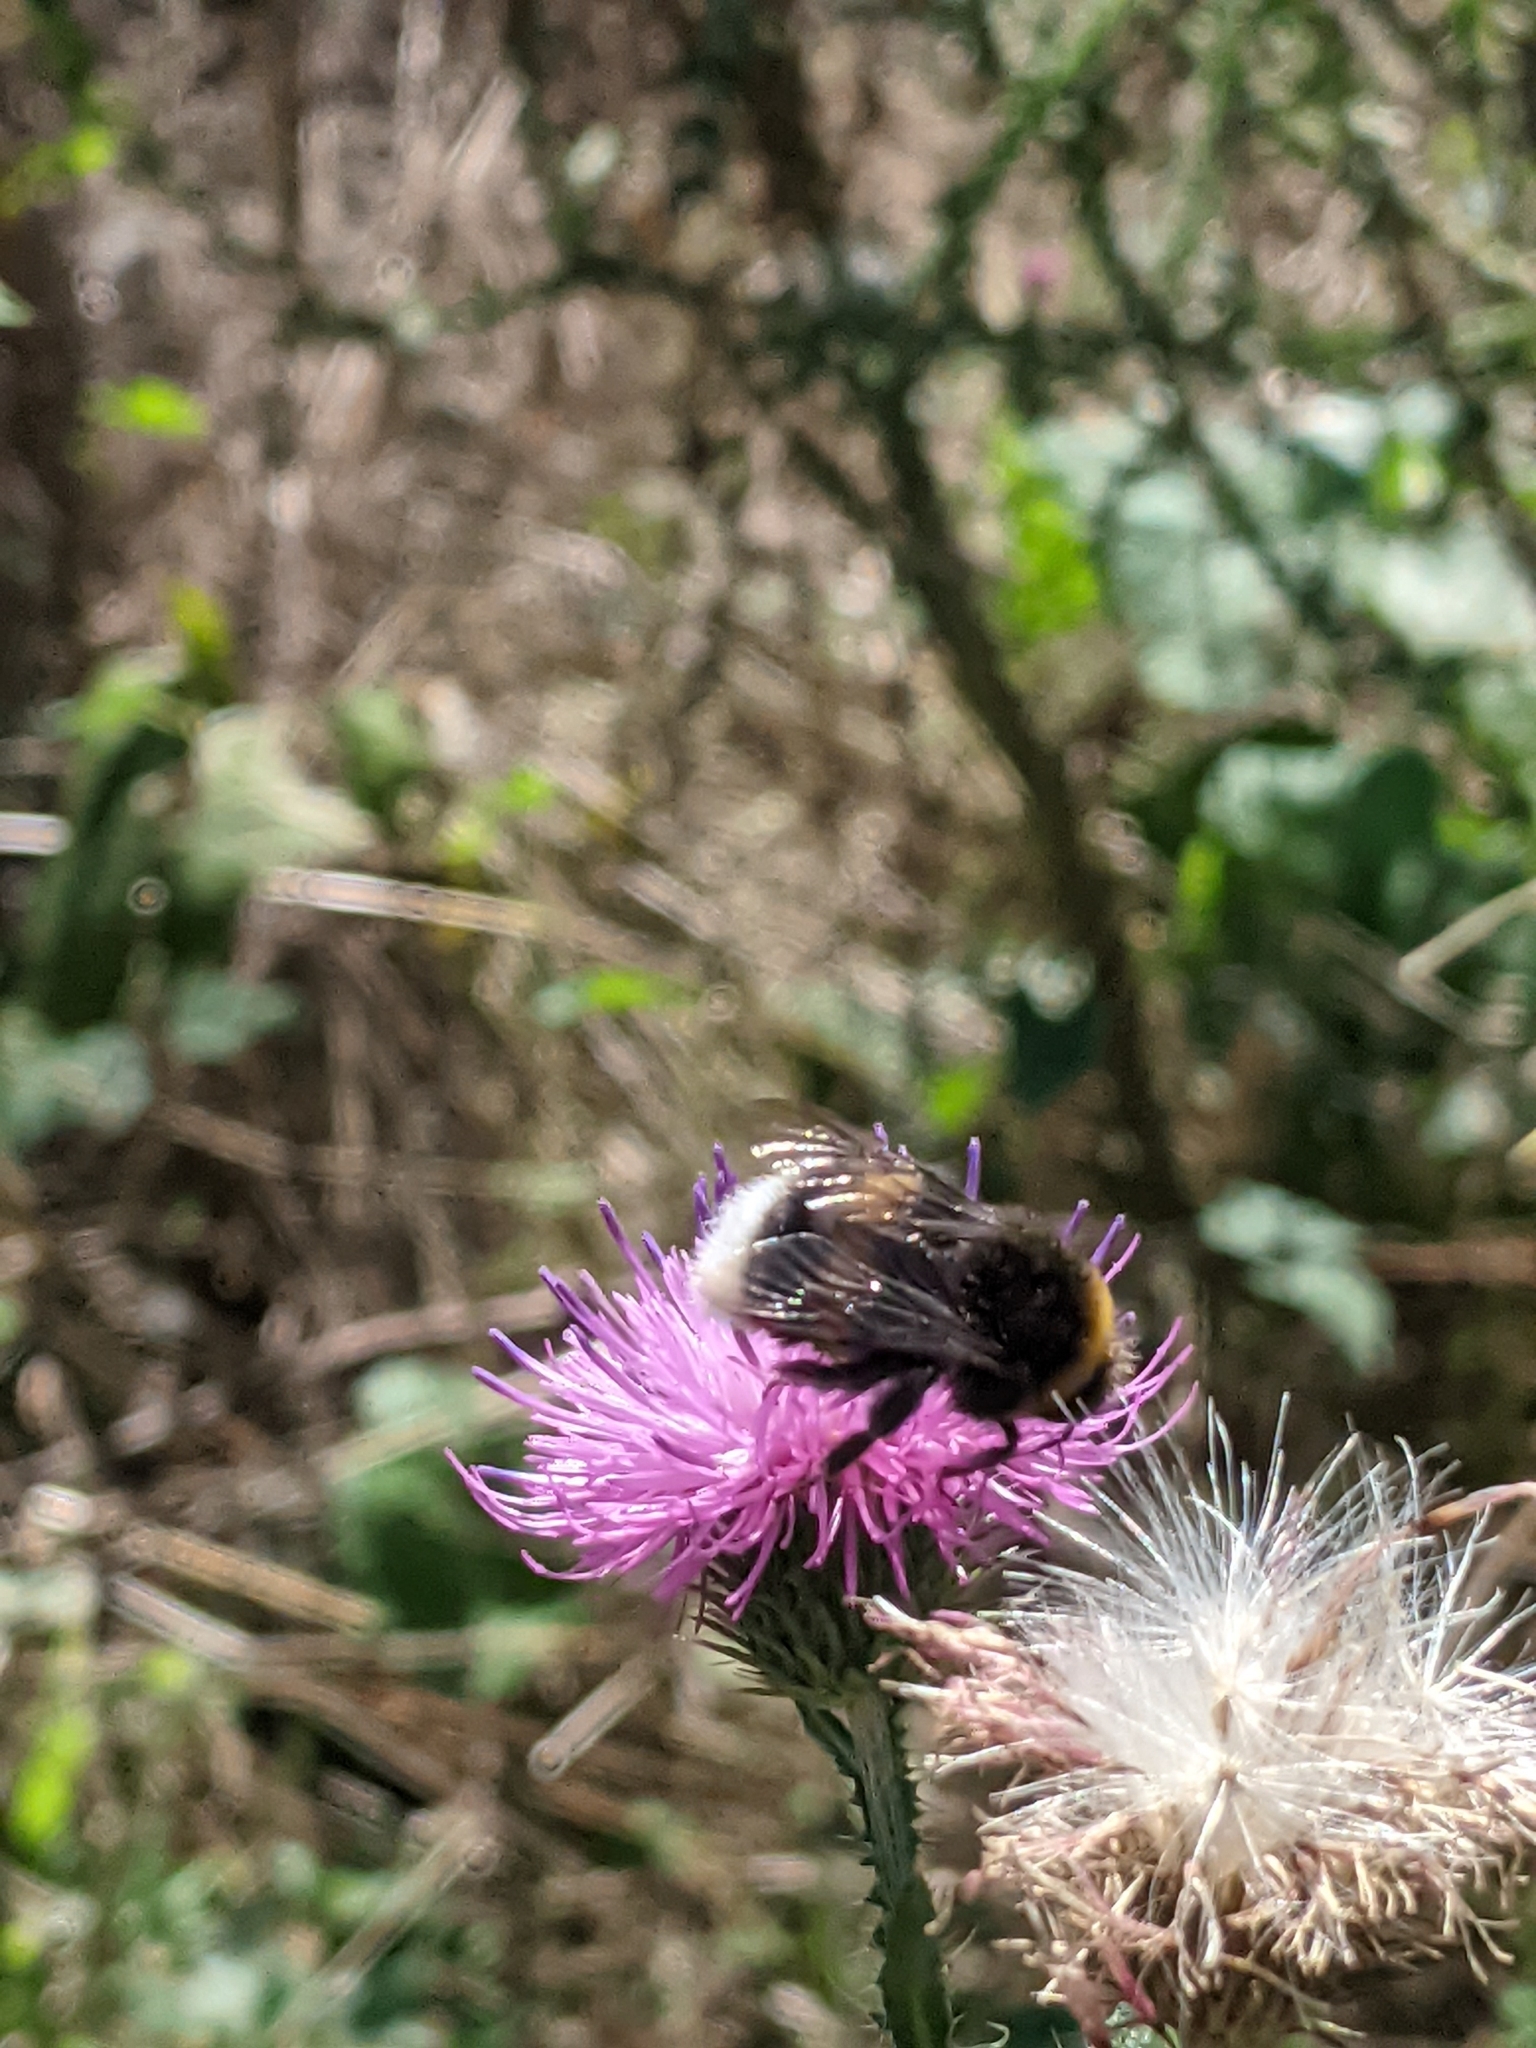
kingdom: Animalia
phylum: Arthropoda
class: Insecta
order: Hymenoptera
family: Apidae
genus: Bombus
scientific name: Bombus
